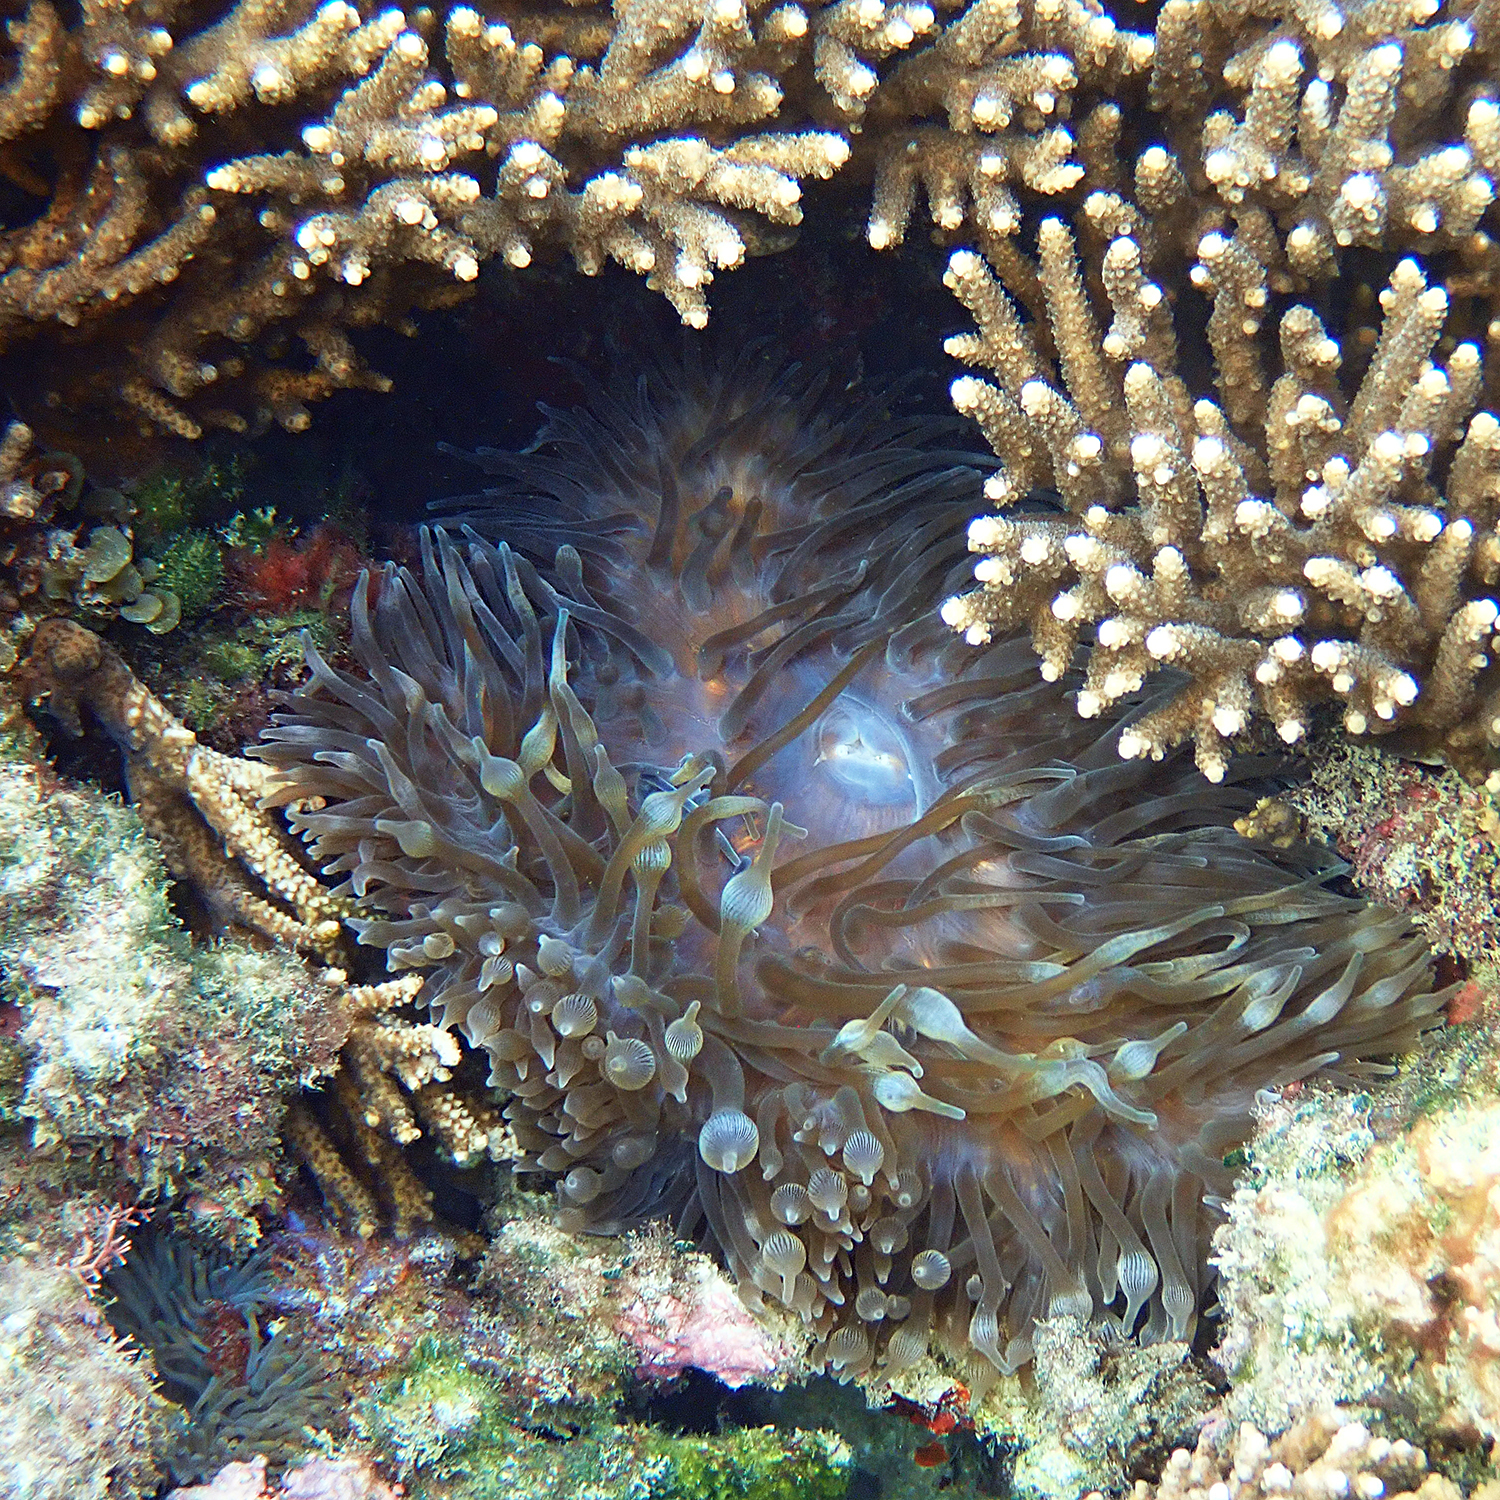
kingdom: Animalia
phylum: Cnidaria
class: Anthozoa
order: Actiniaria
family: Actiniidae
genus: Entacmaea
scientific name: Entacmaea quadricolor
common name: Bulb tentacle sea anemone
